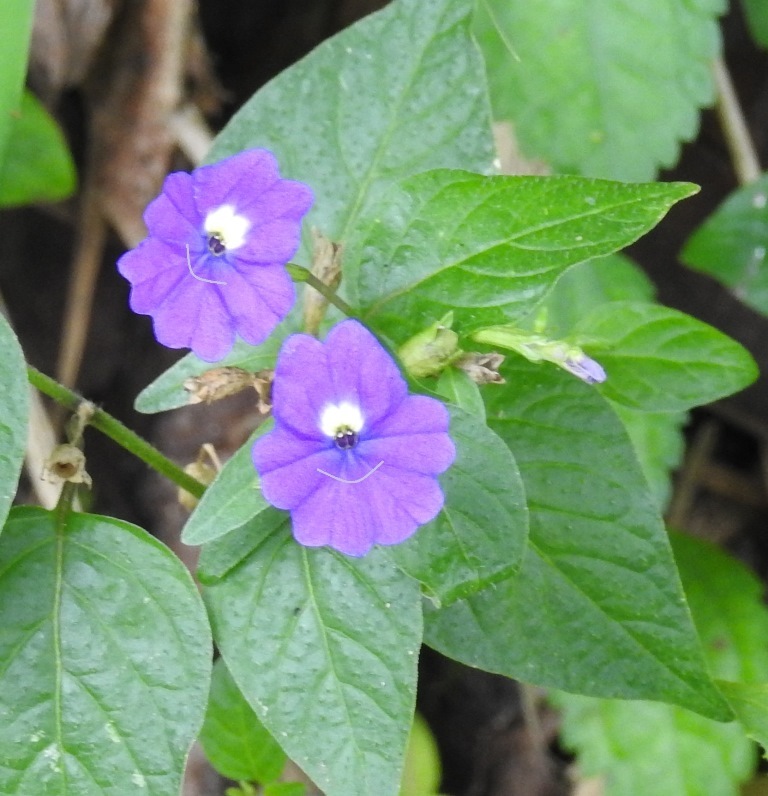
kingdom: Plantae
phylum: Tracheophyta
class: Magnoliopsida
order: Solanales
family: Solanaceae
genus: Browallia
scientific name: Browallia americana
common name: Jamaican forget-me-not
